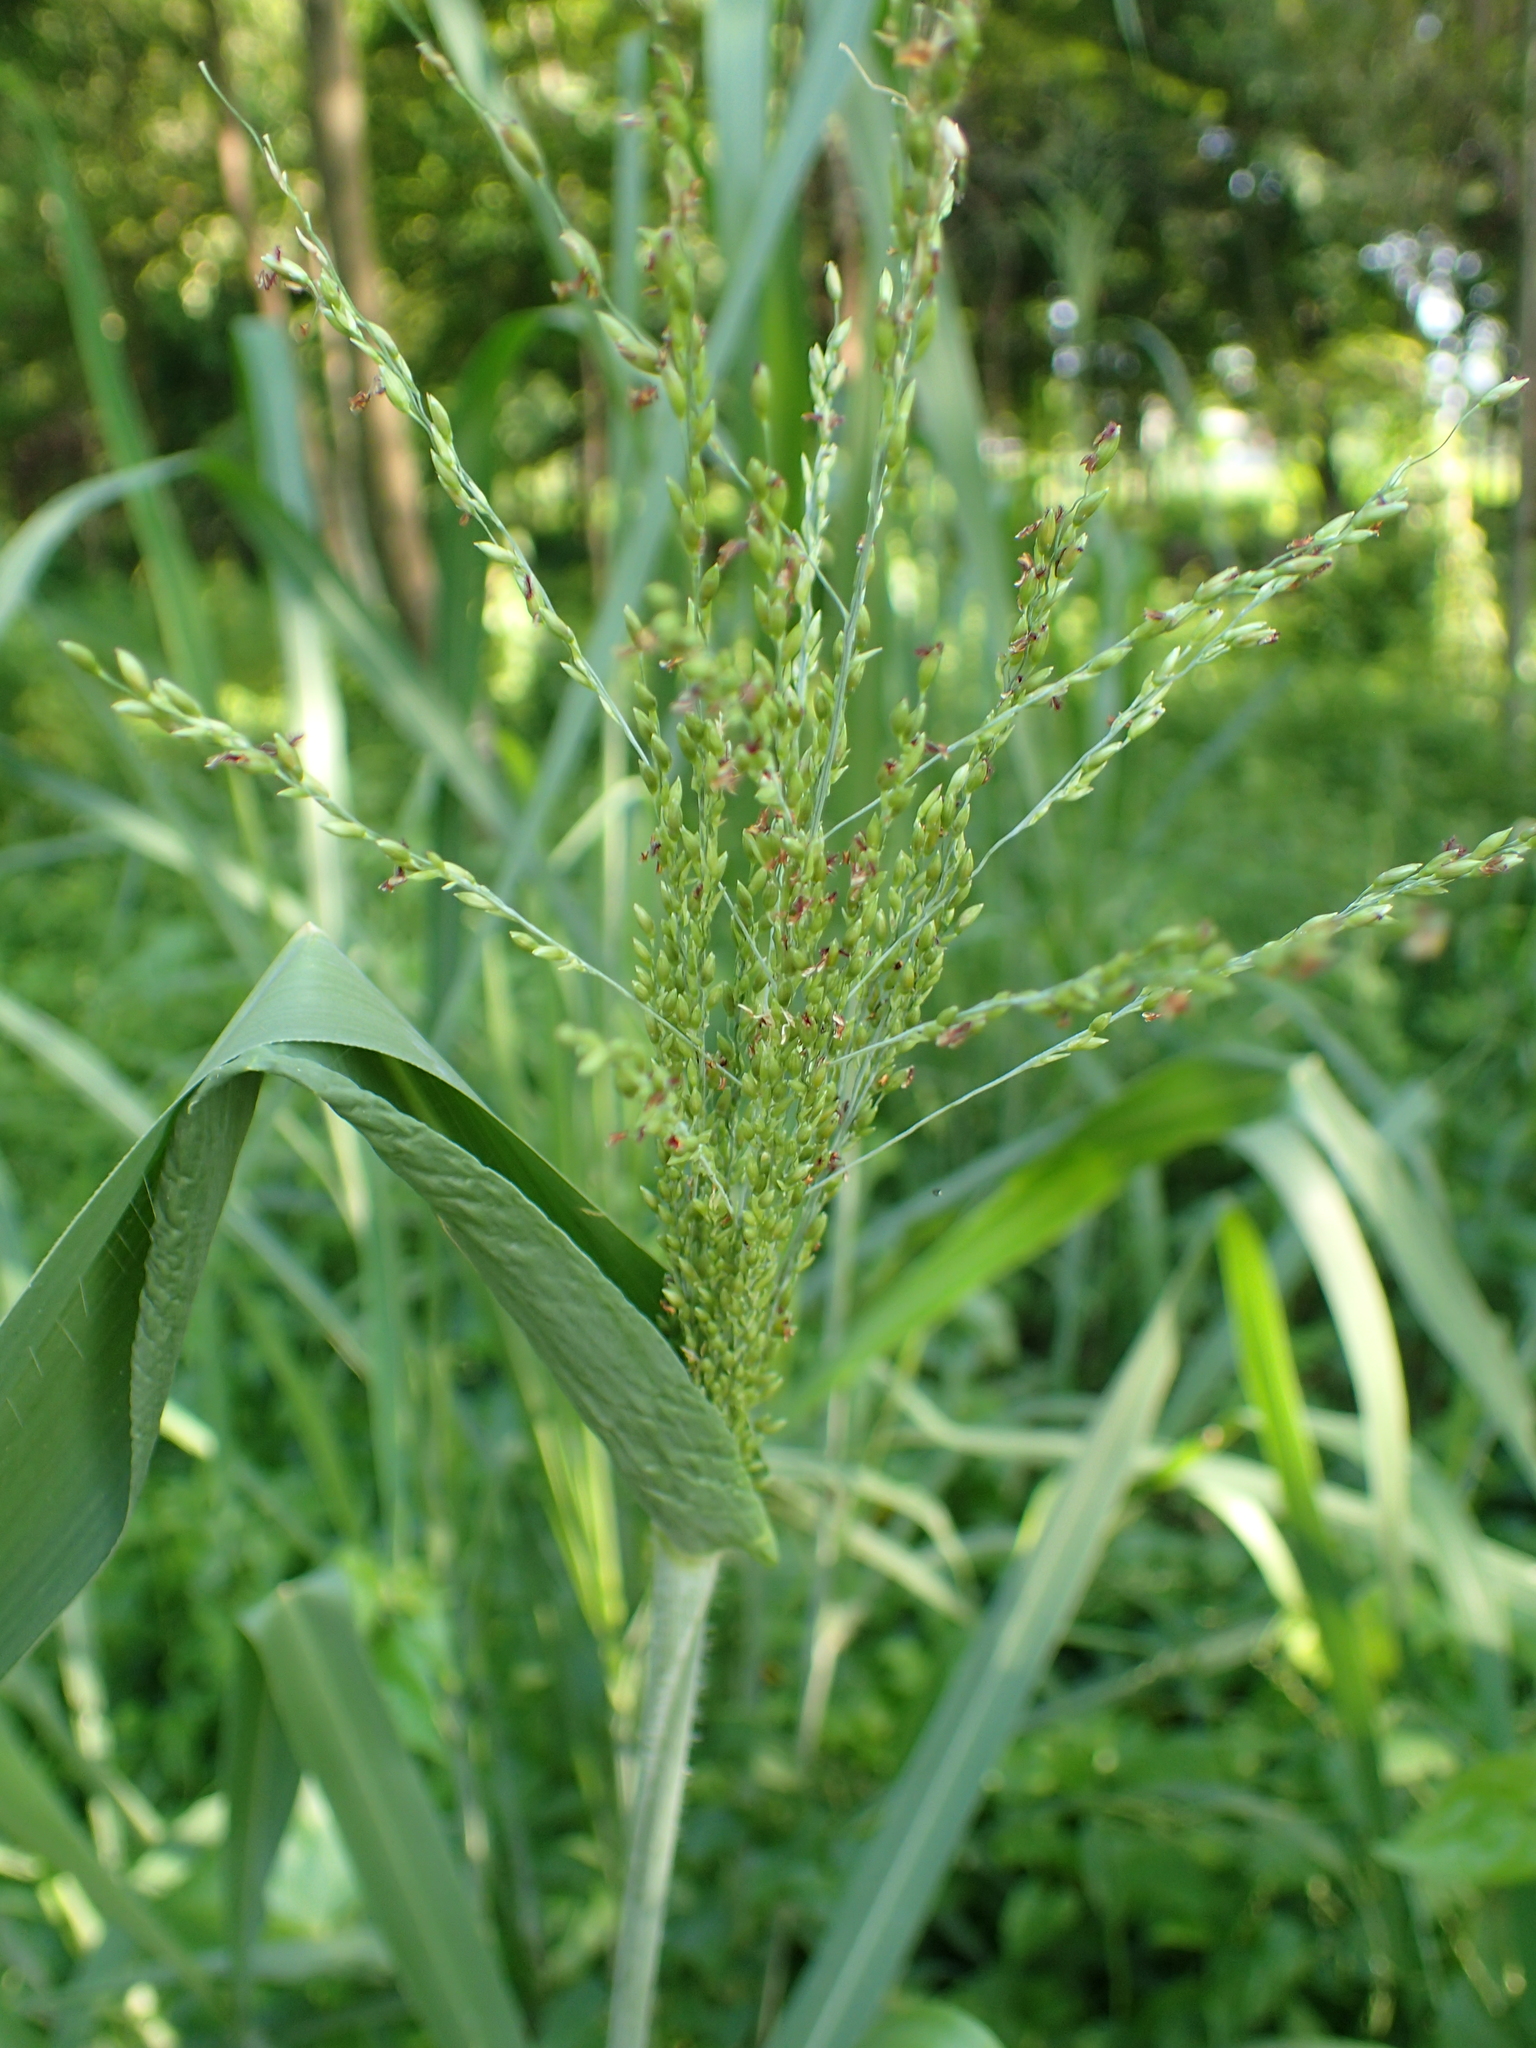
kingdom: Plantae
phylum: Tracheophyta
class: Liliopsida
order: Poales
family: Poaceae
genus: Megathyrsus
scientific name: Megathyrsus maximus
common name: Guineagrass
